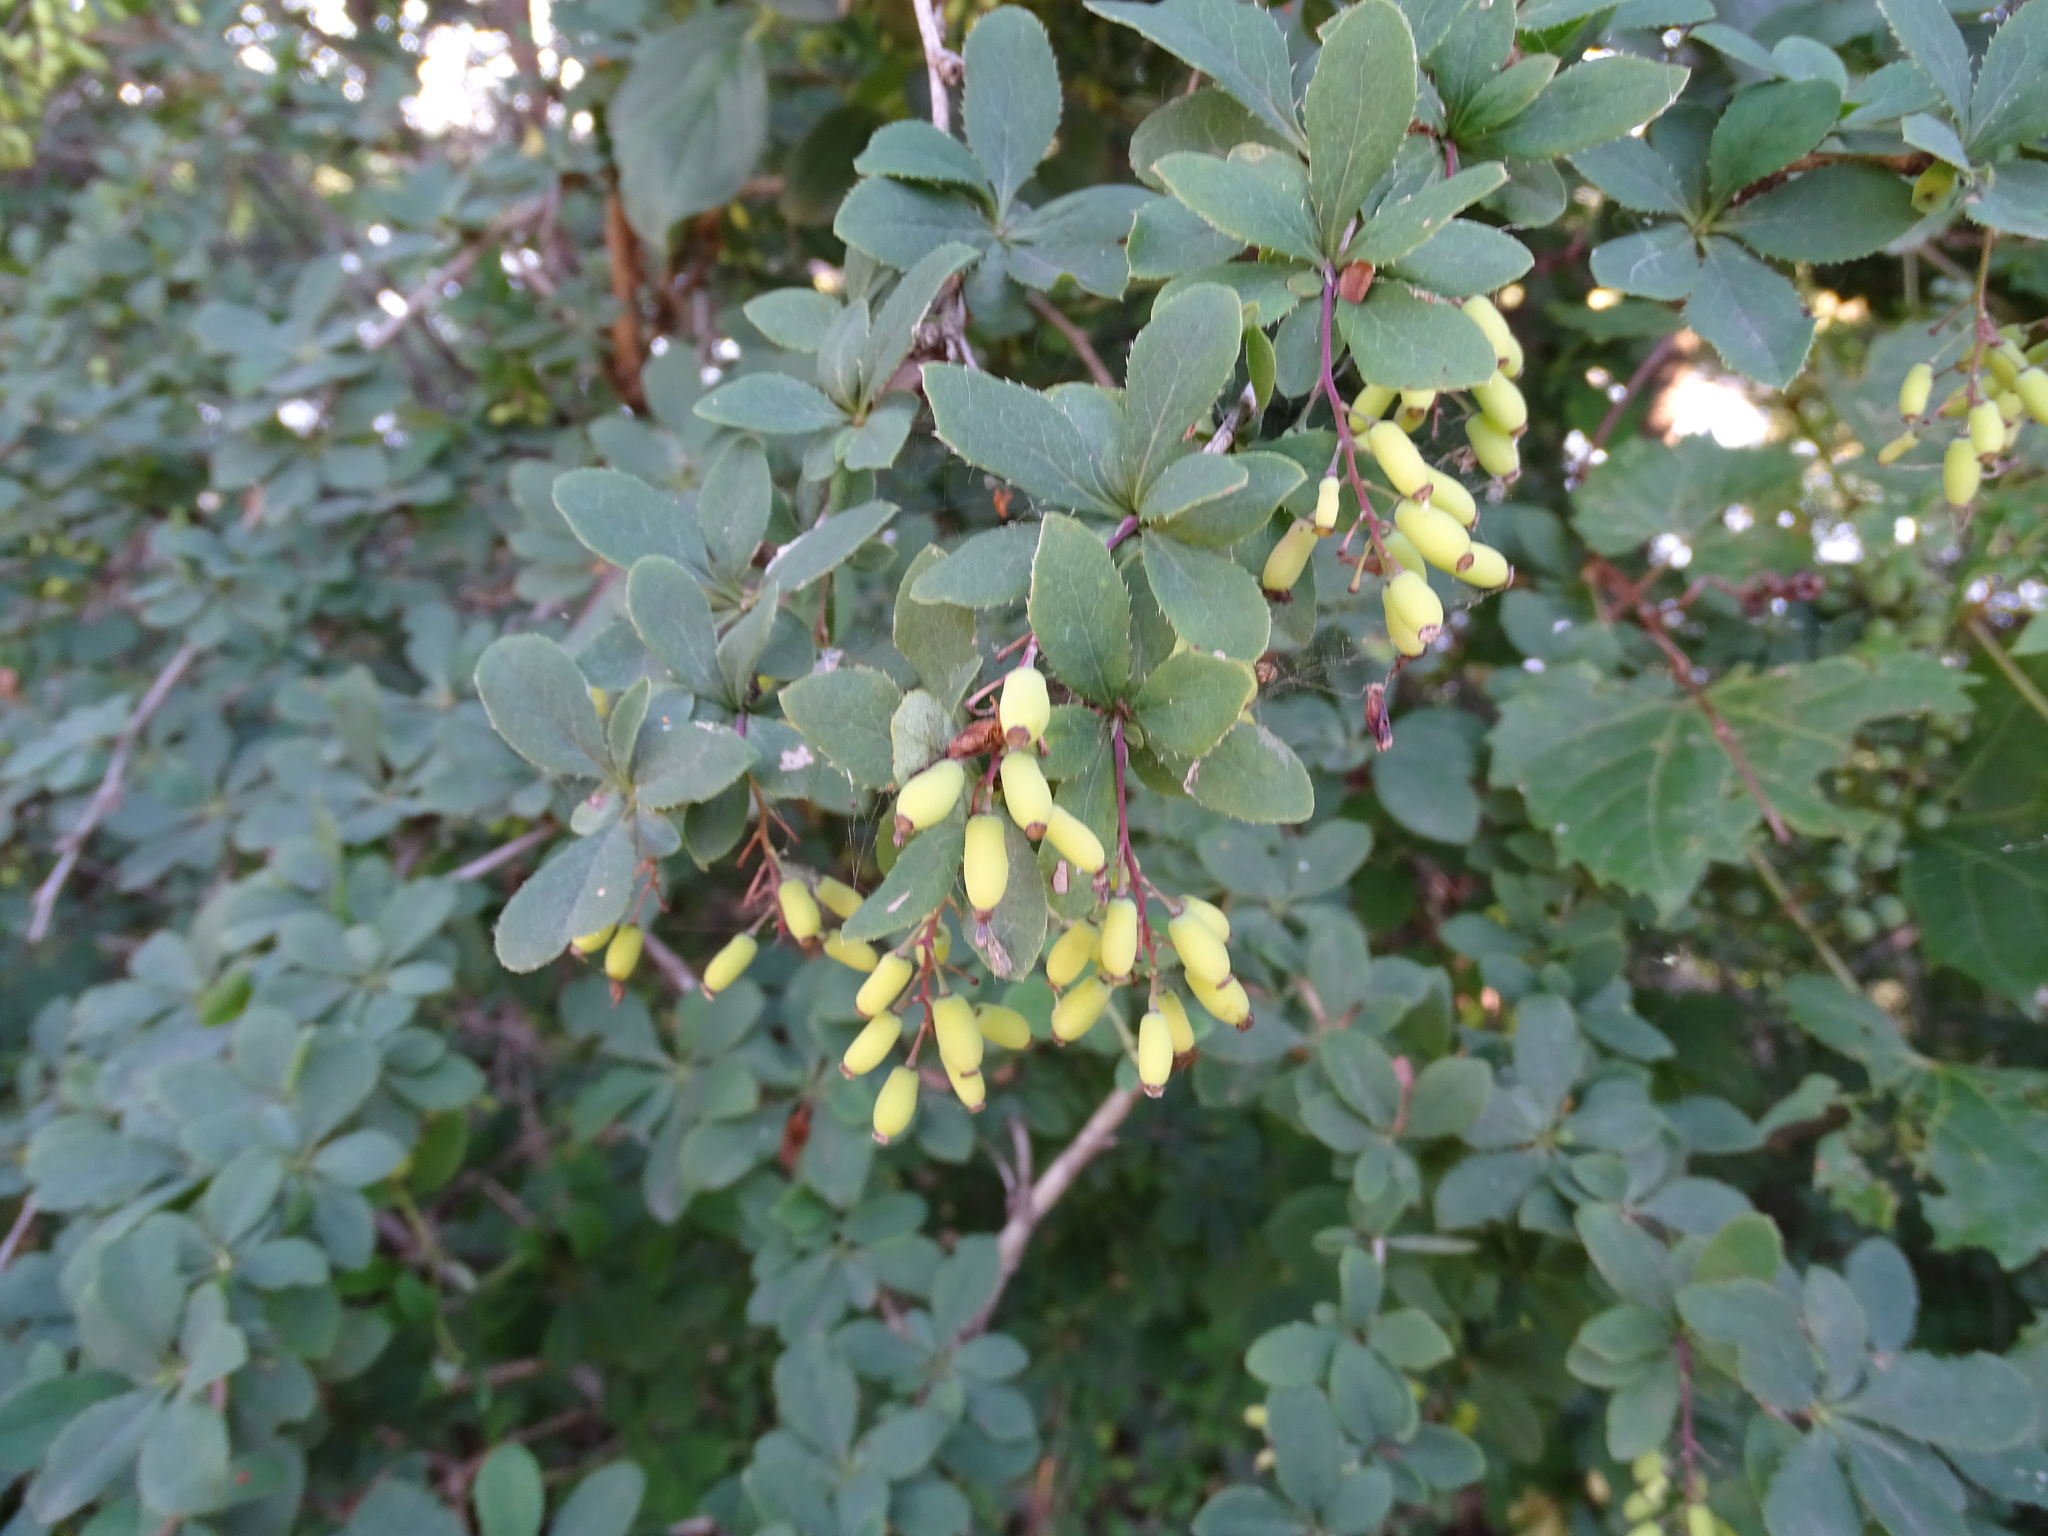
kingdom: Plantae
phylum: Tracheophyta
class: Magnoliopsida
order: Ranunculales
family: Berberidaceae
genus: Berberis
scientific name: Berberis vulgaris
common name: Barberry
